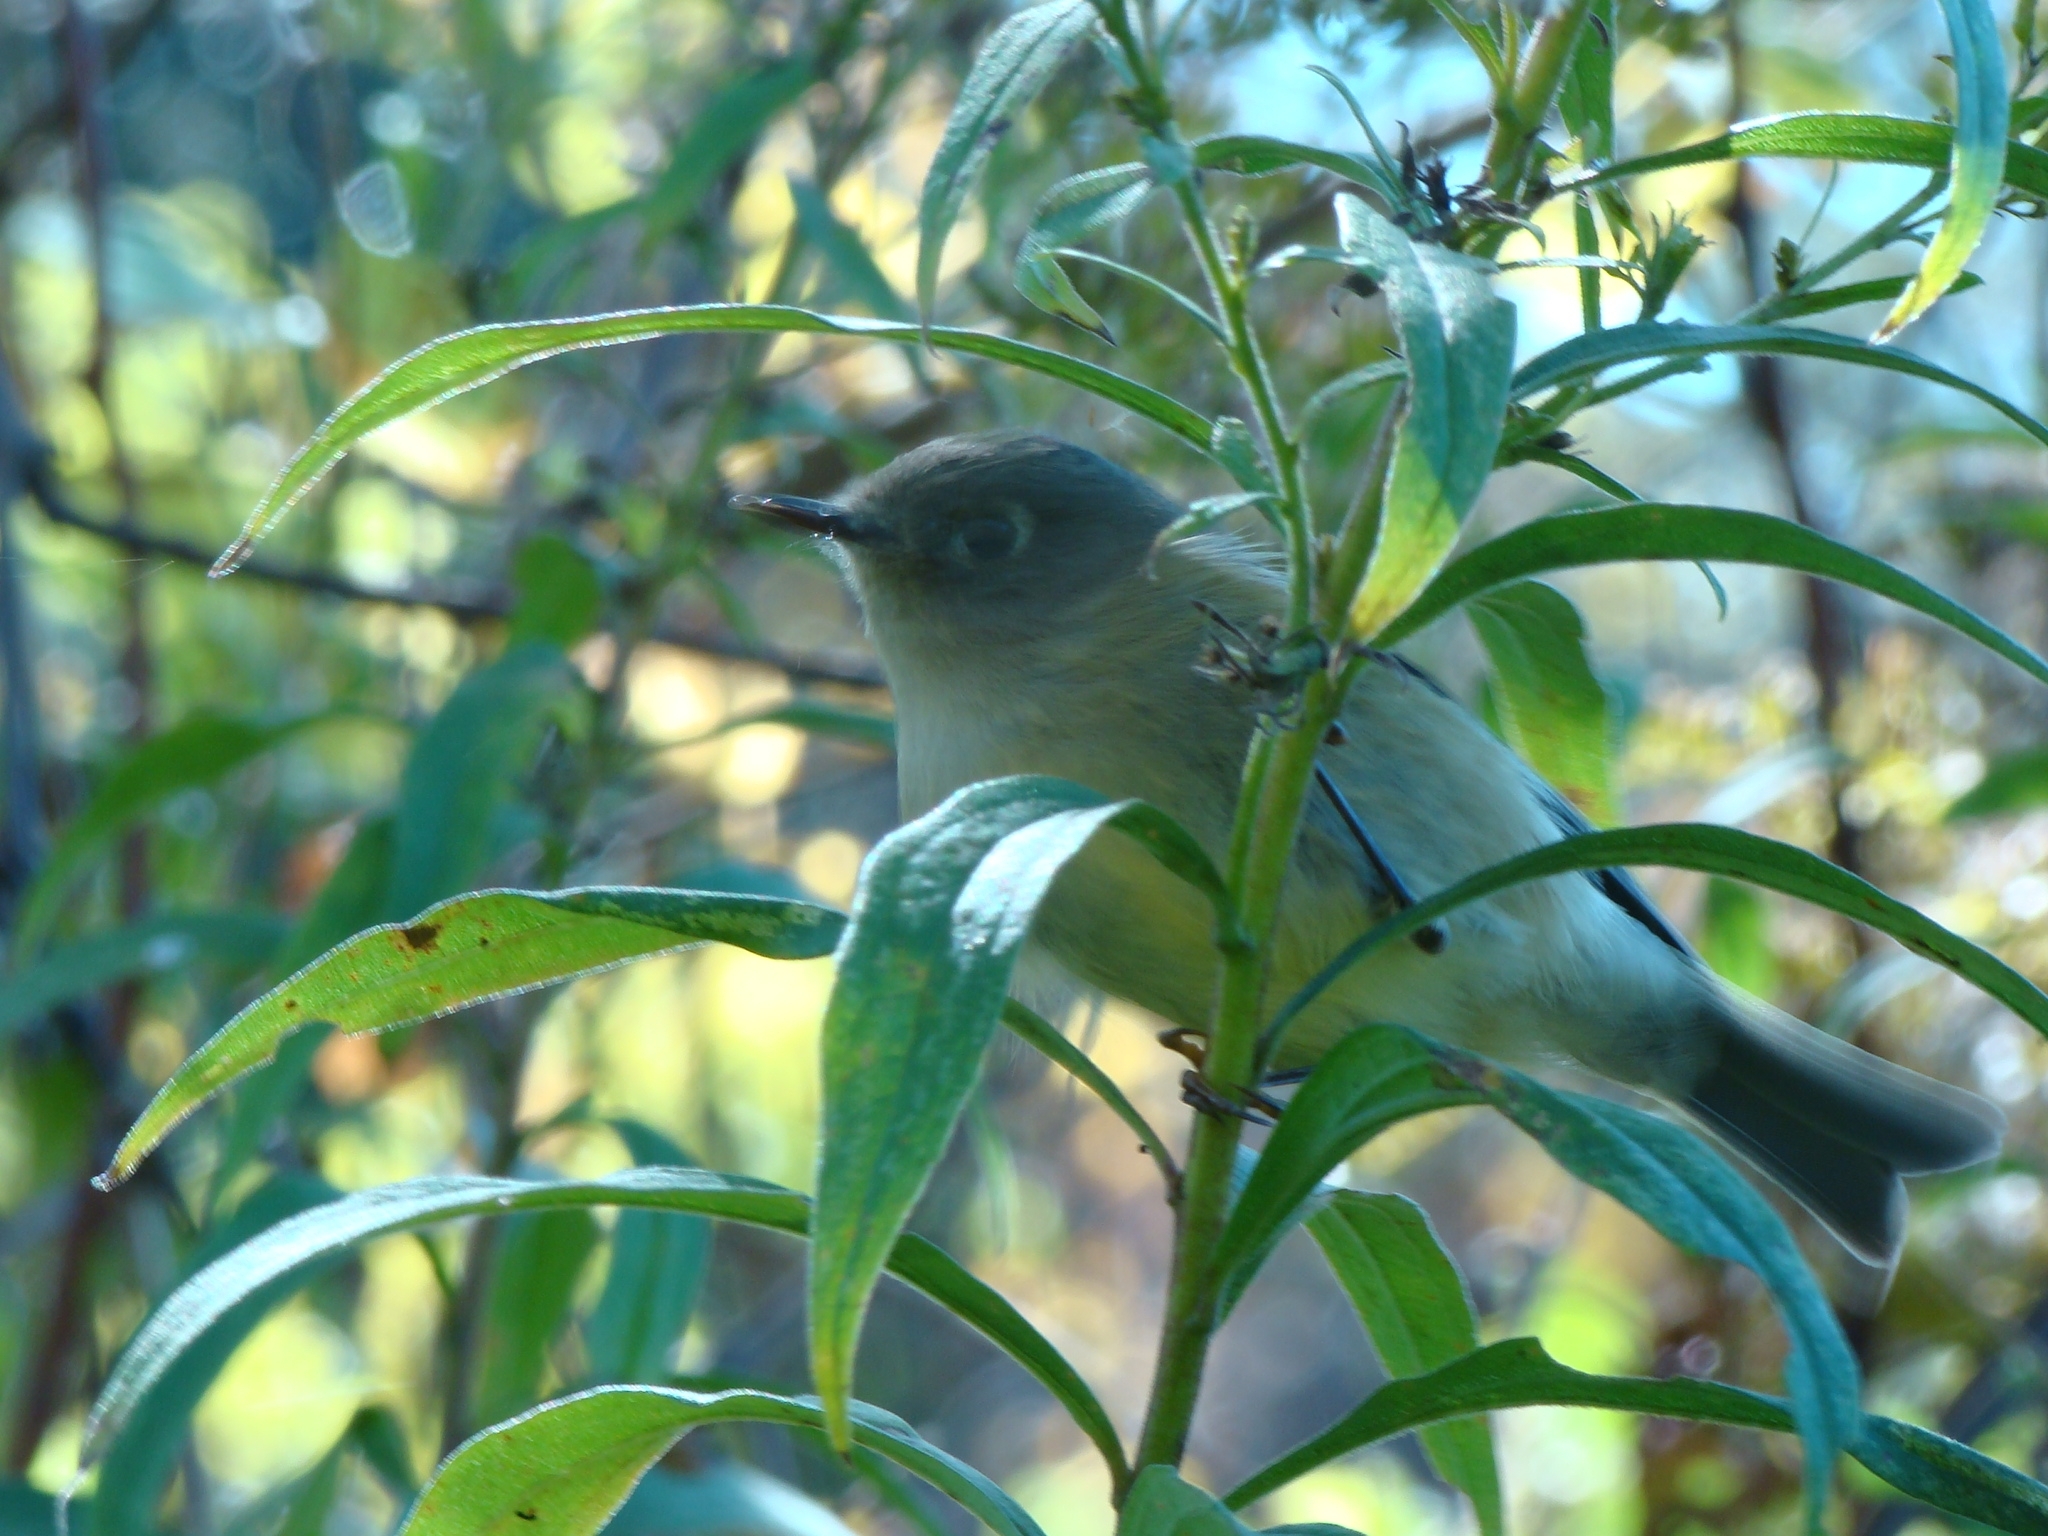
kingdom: Animalia
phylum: Chordata
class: Aves
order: Passeriformes
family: Regulidae
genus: Regulus
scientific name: Regulus calendula
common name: Ruby-crowned kinglet
